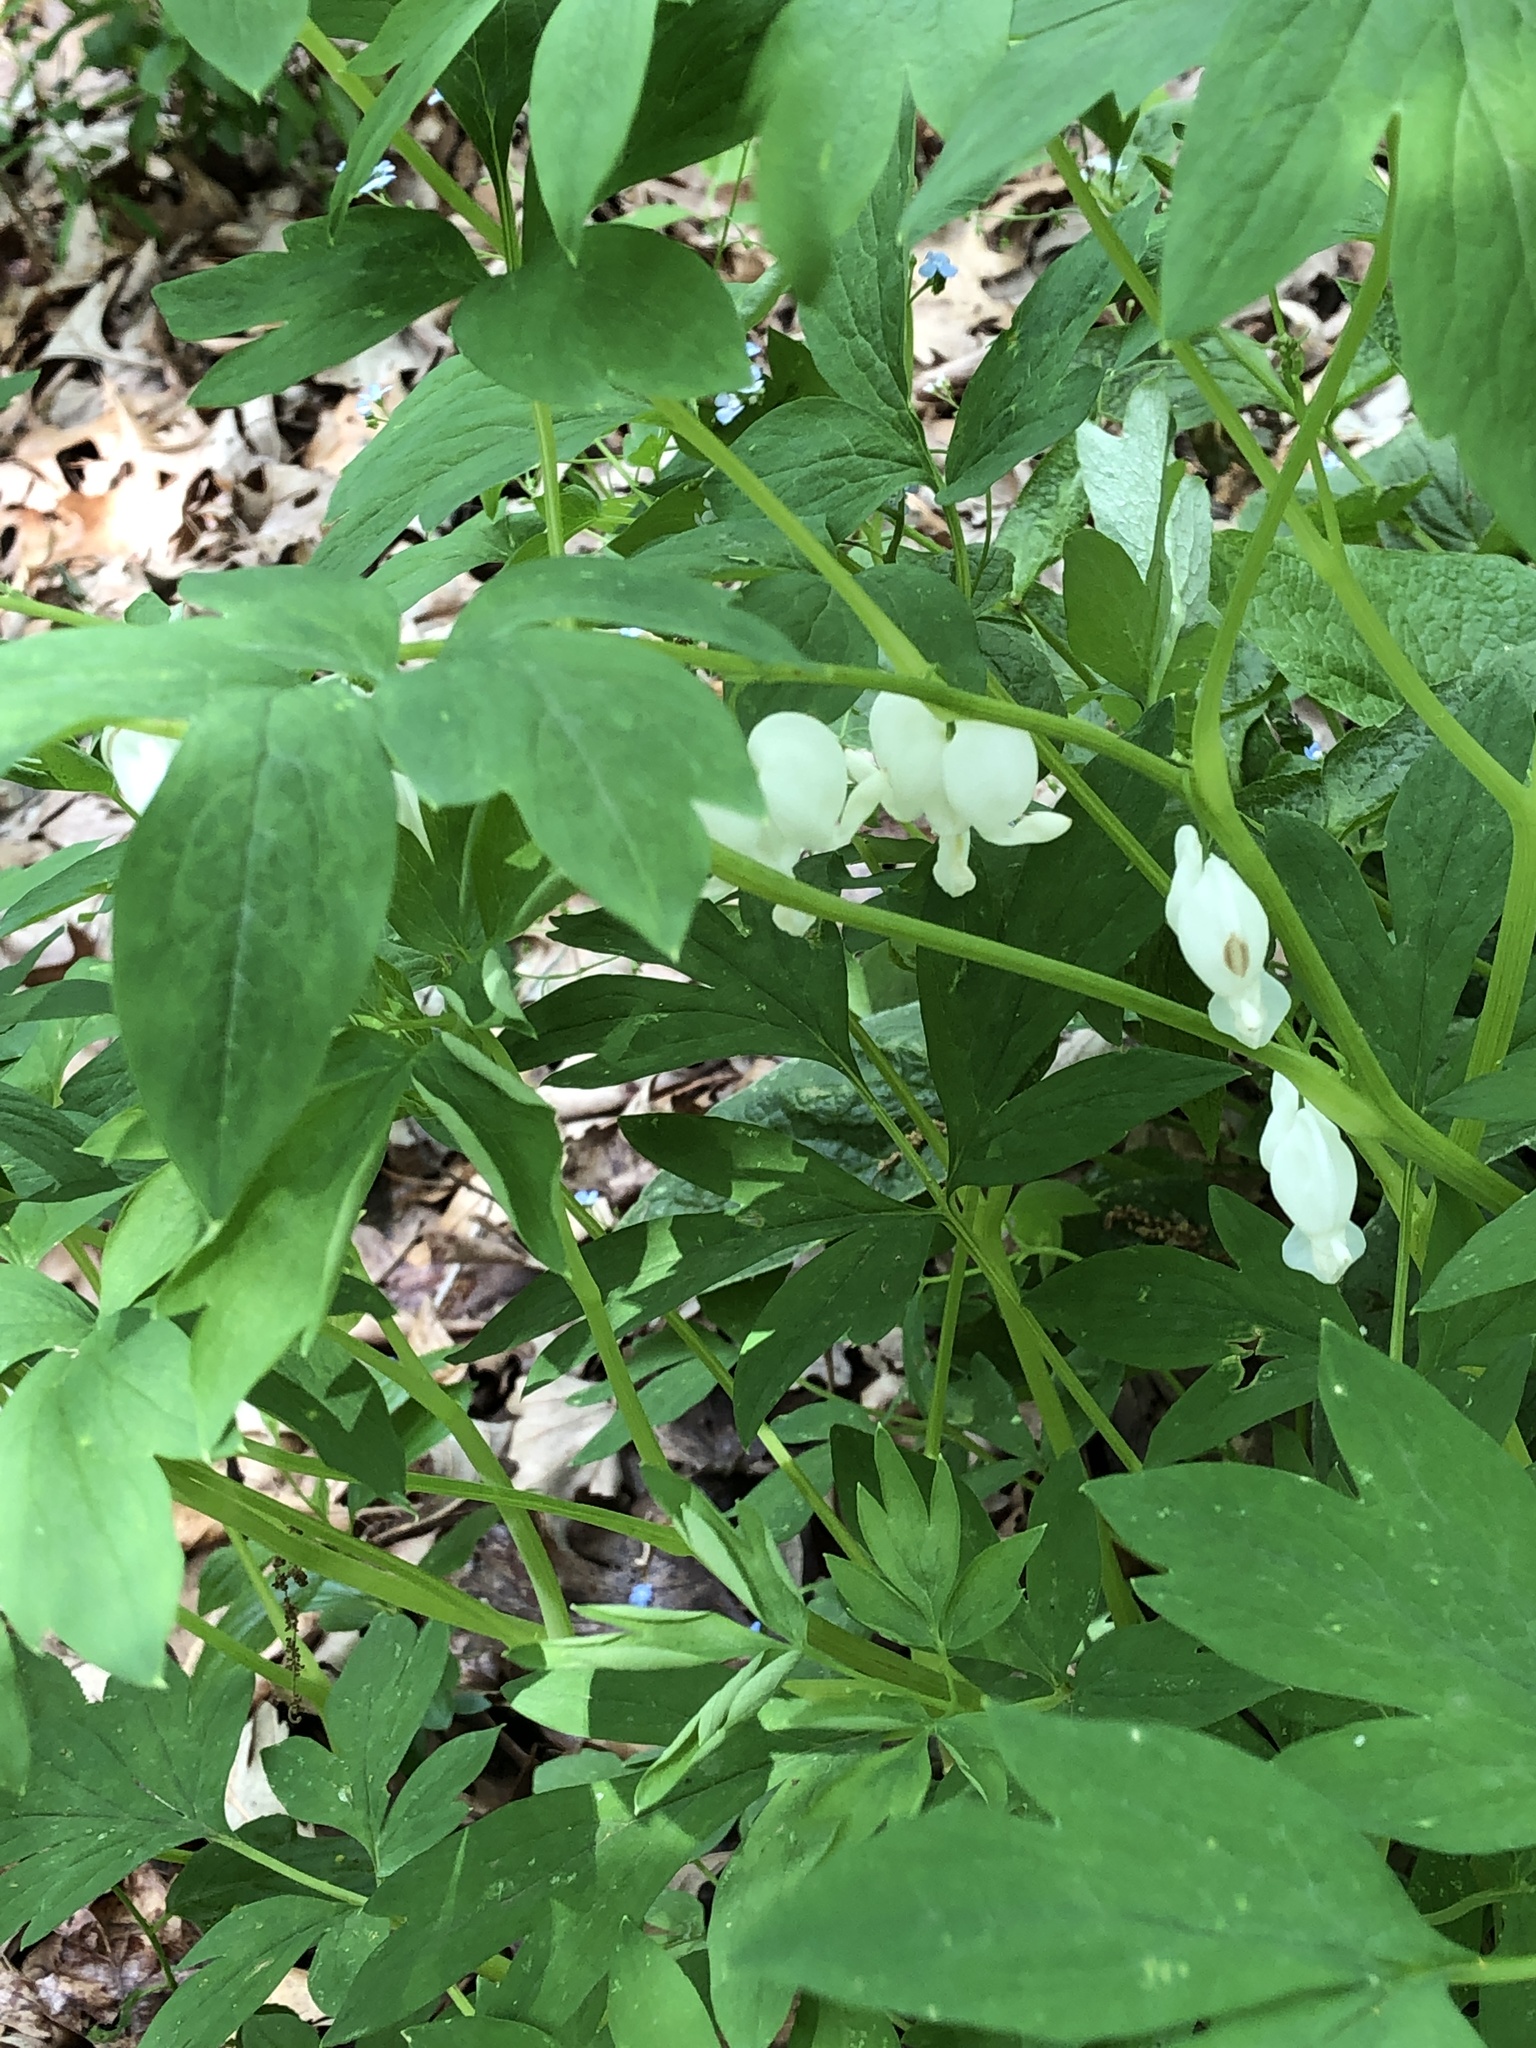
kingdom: Plantae
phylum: Tracheophyta
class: Magnoliopsida
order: Ranunculales
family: Papaveraceae
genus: Lamprocapnos
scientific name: Lamprocapnos spectabilis
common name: Asian bleeding-heart
